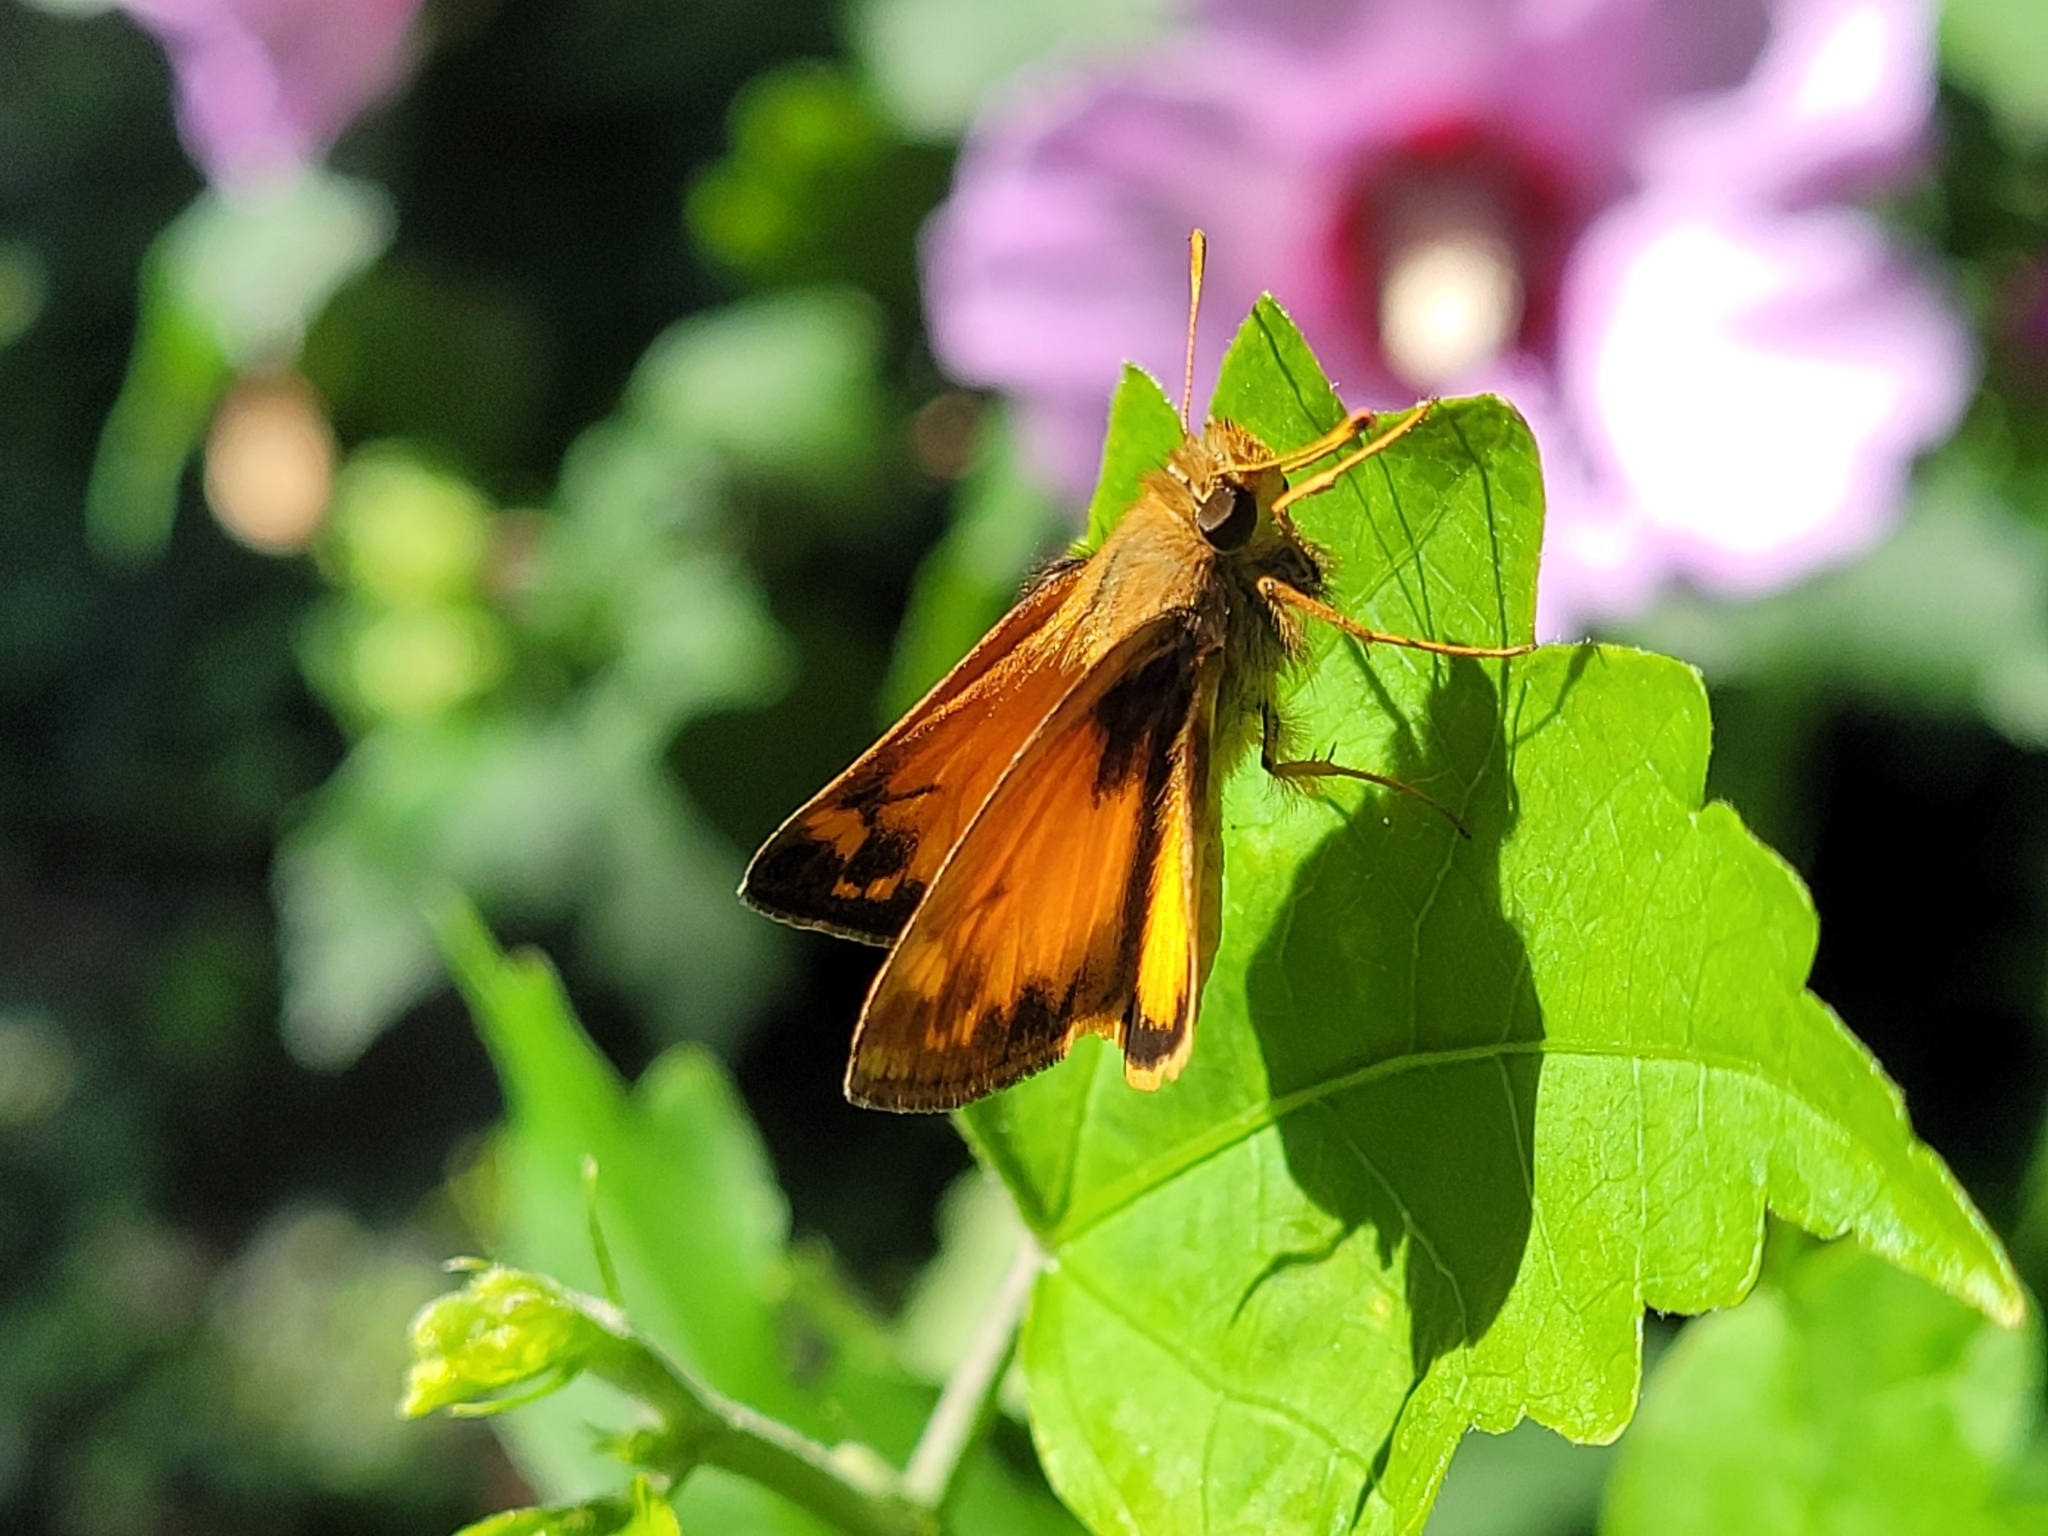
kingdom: Animalia
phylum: Arthropoda
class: Insecta
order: Lepidoptera
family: Hesperiidae
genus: Lon
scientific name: Lon zabulon
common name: Zabulon skipper
